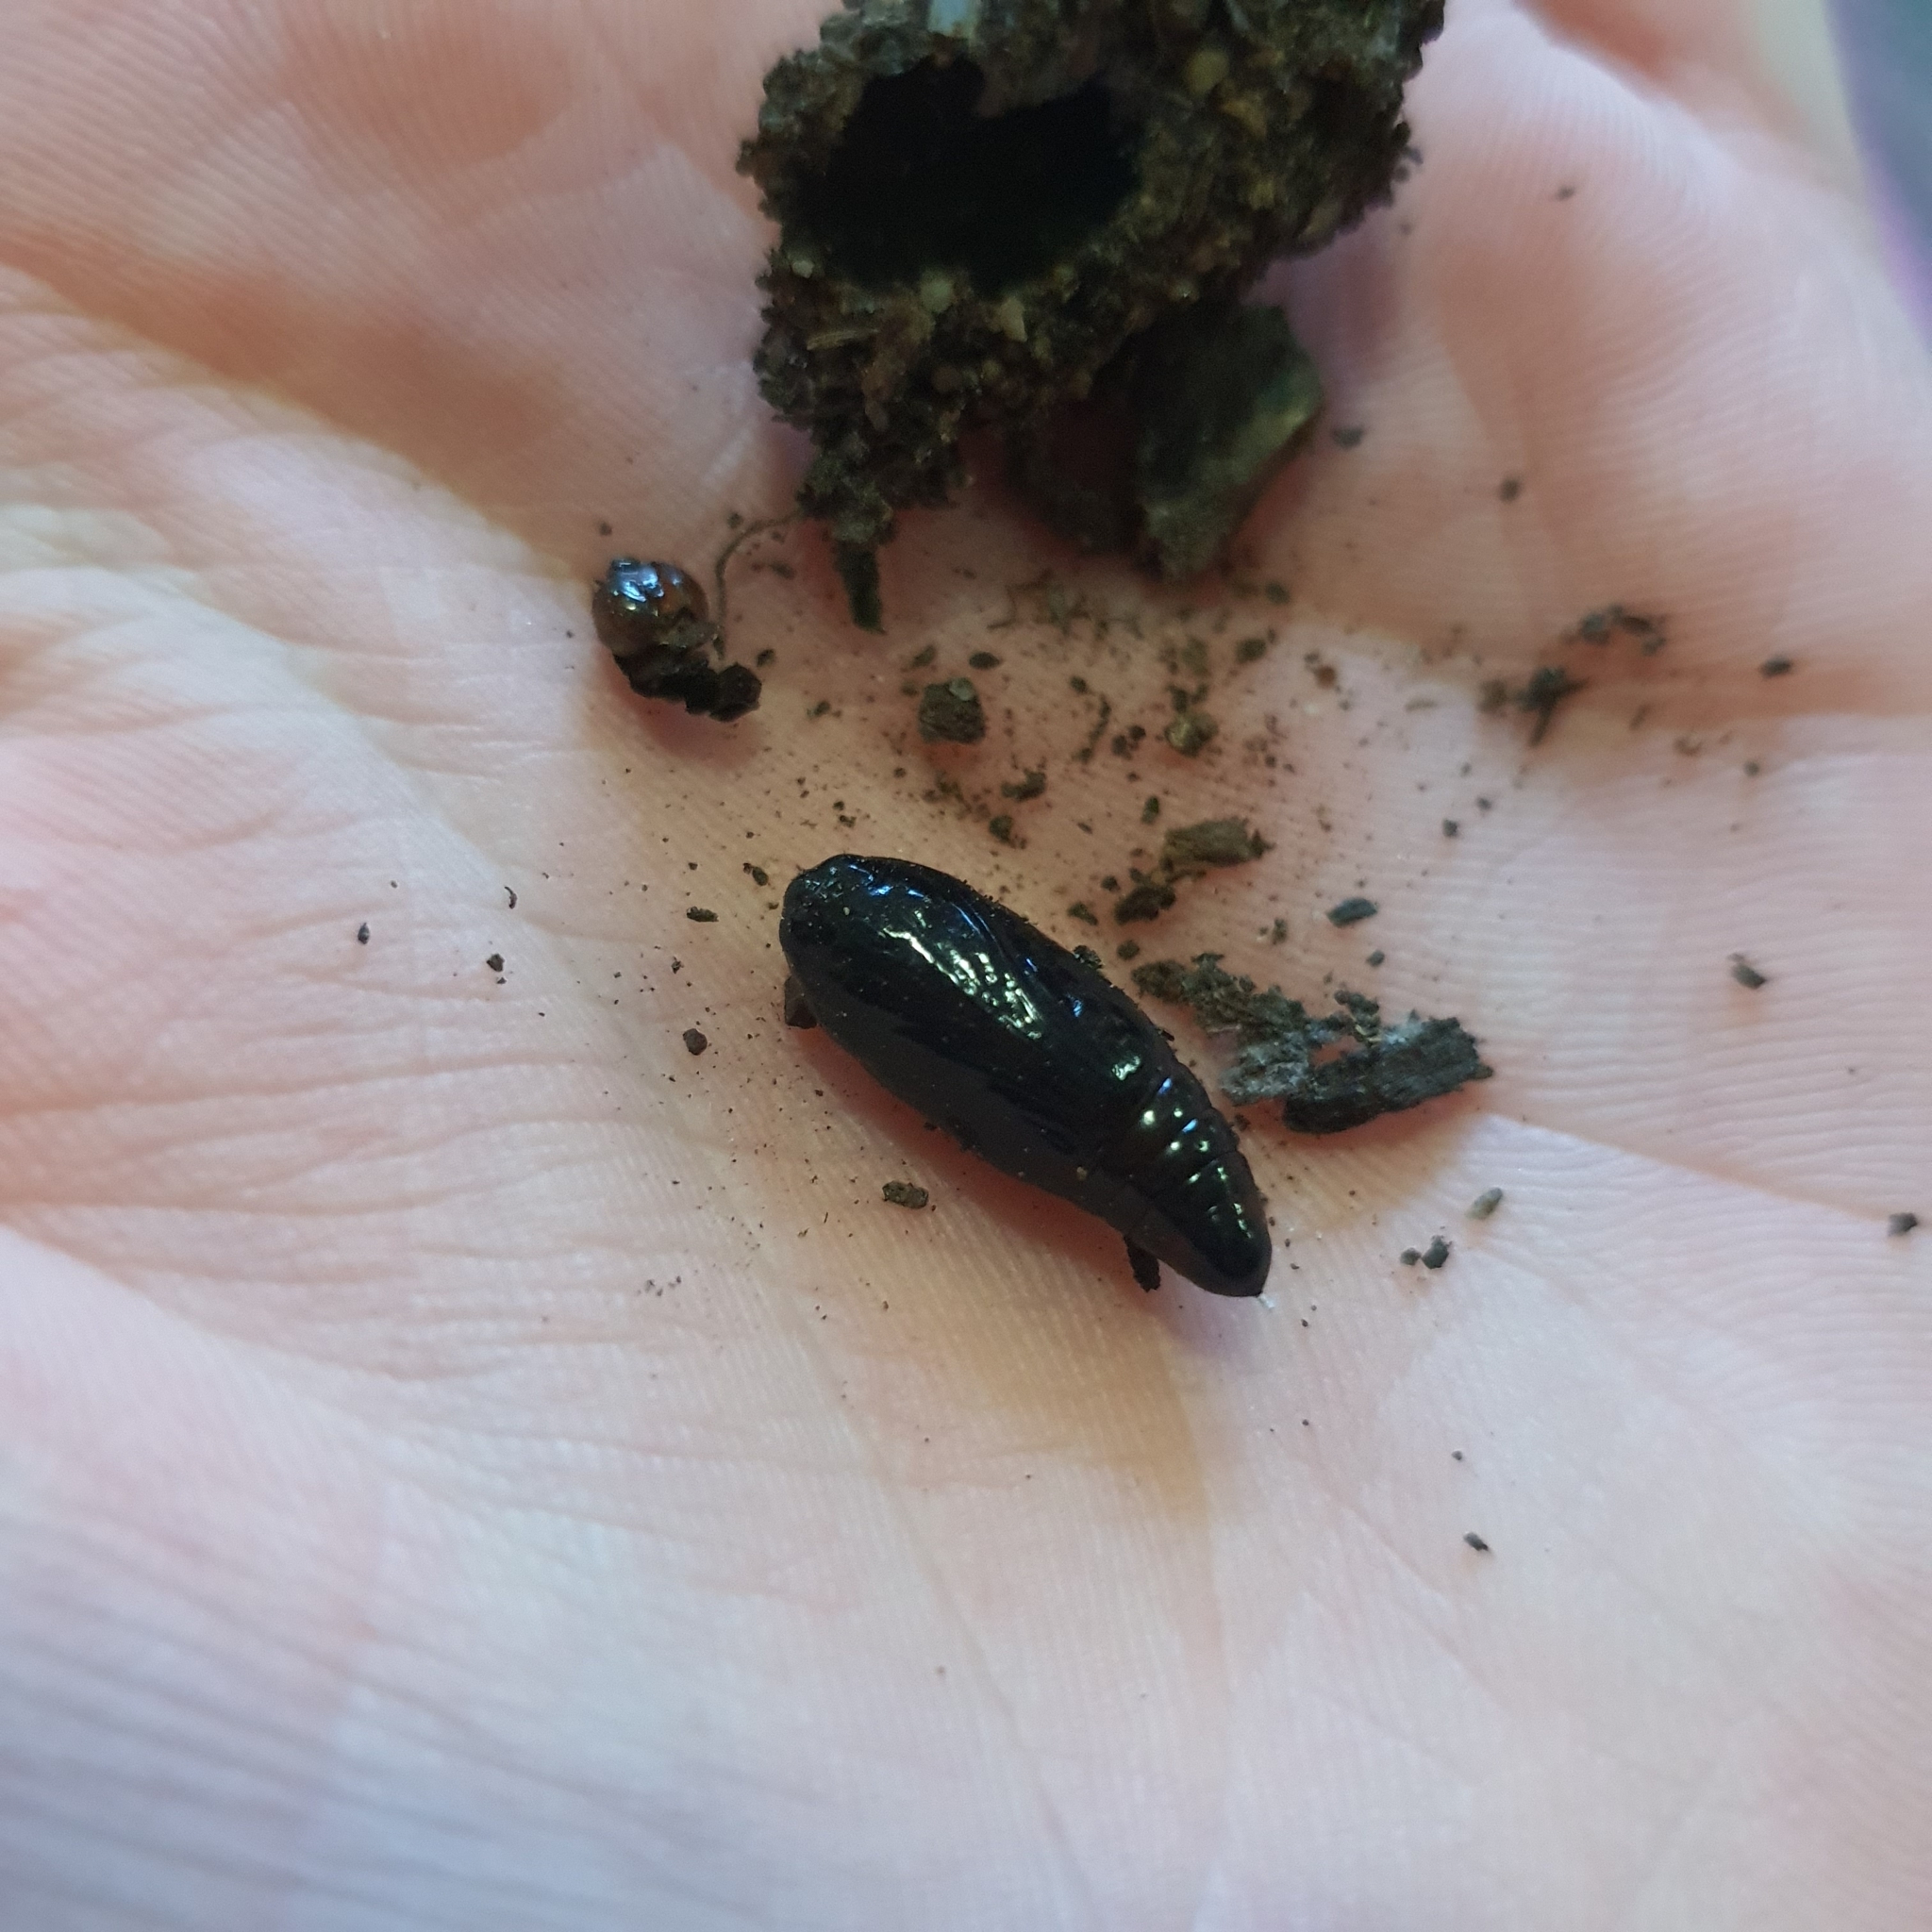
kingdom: Animalia
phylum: Arthropoda
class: Insecta
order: Lepidoptera
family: Noctuidae
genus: Neumichtis
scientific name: Neumichtis nigerrima
